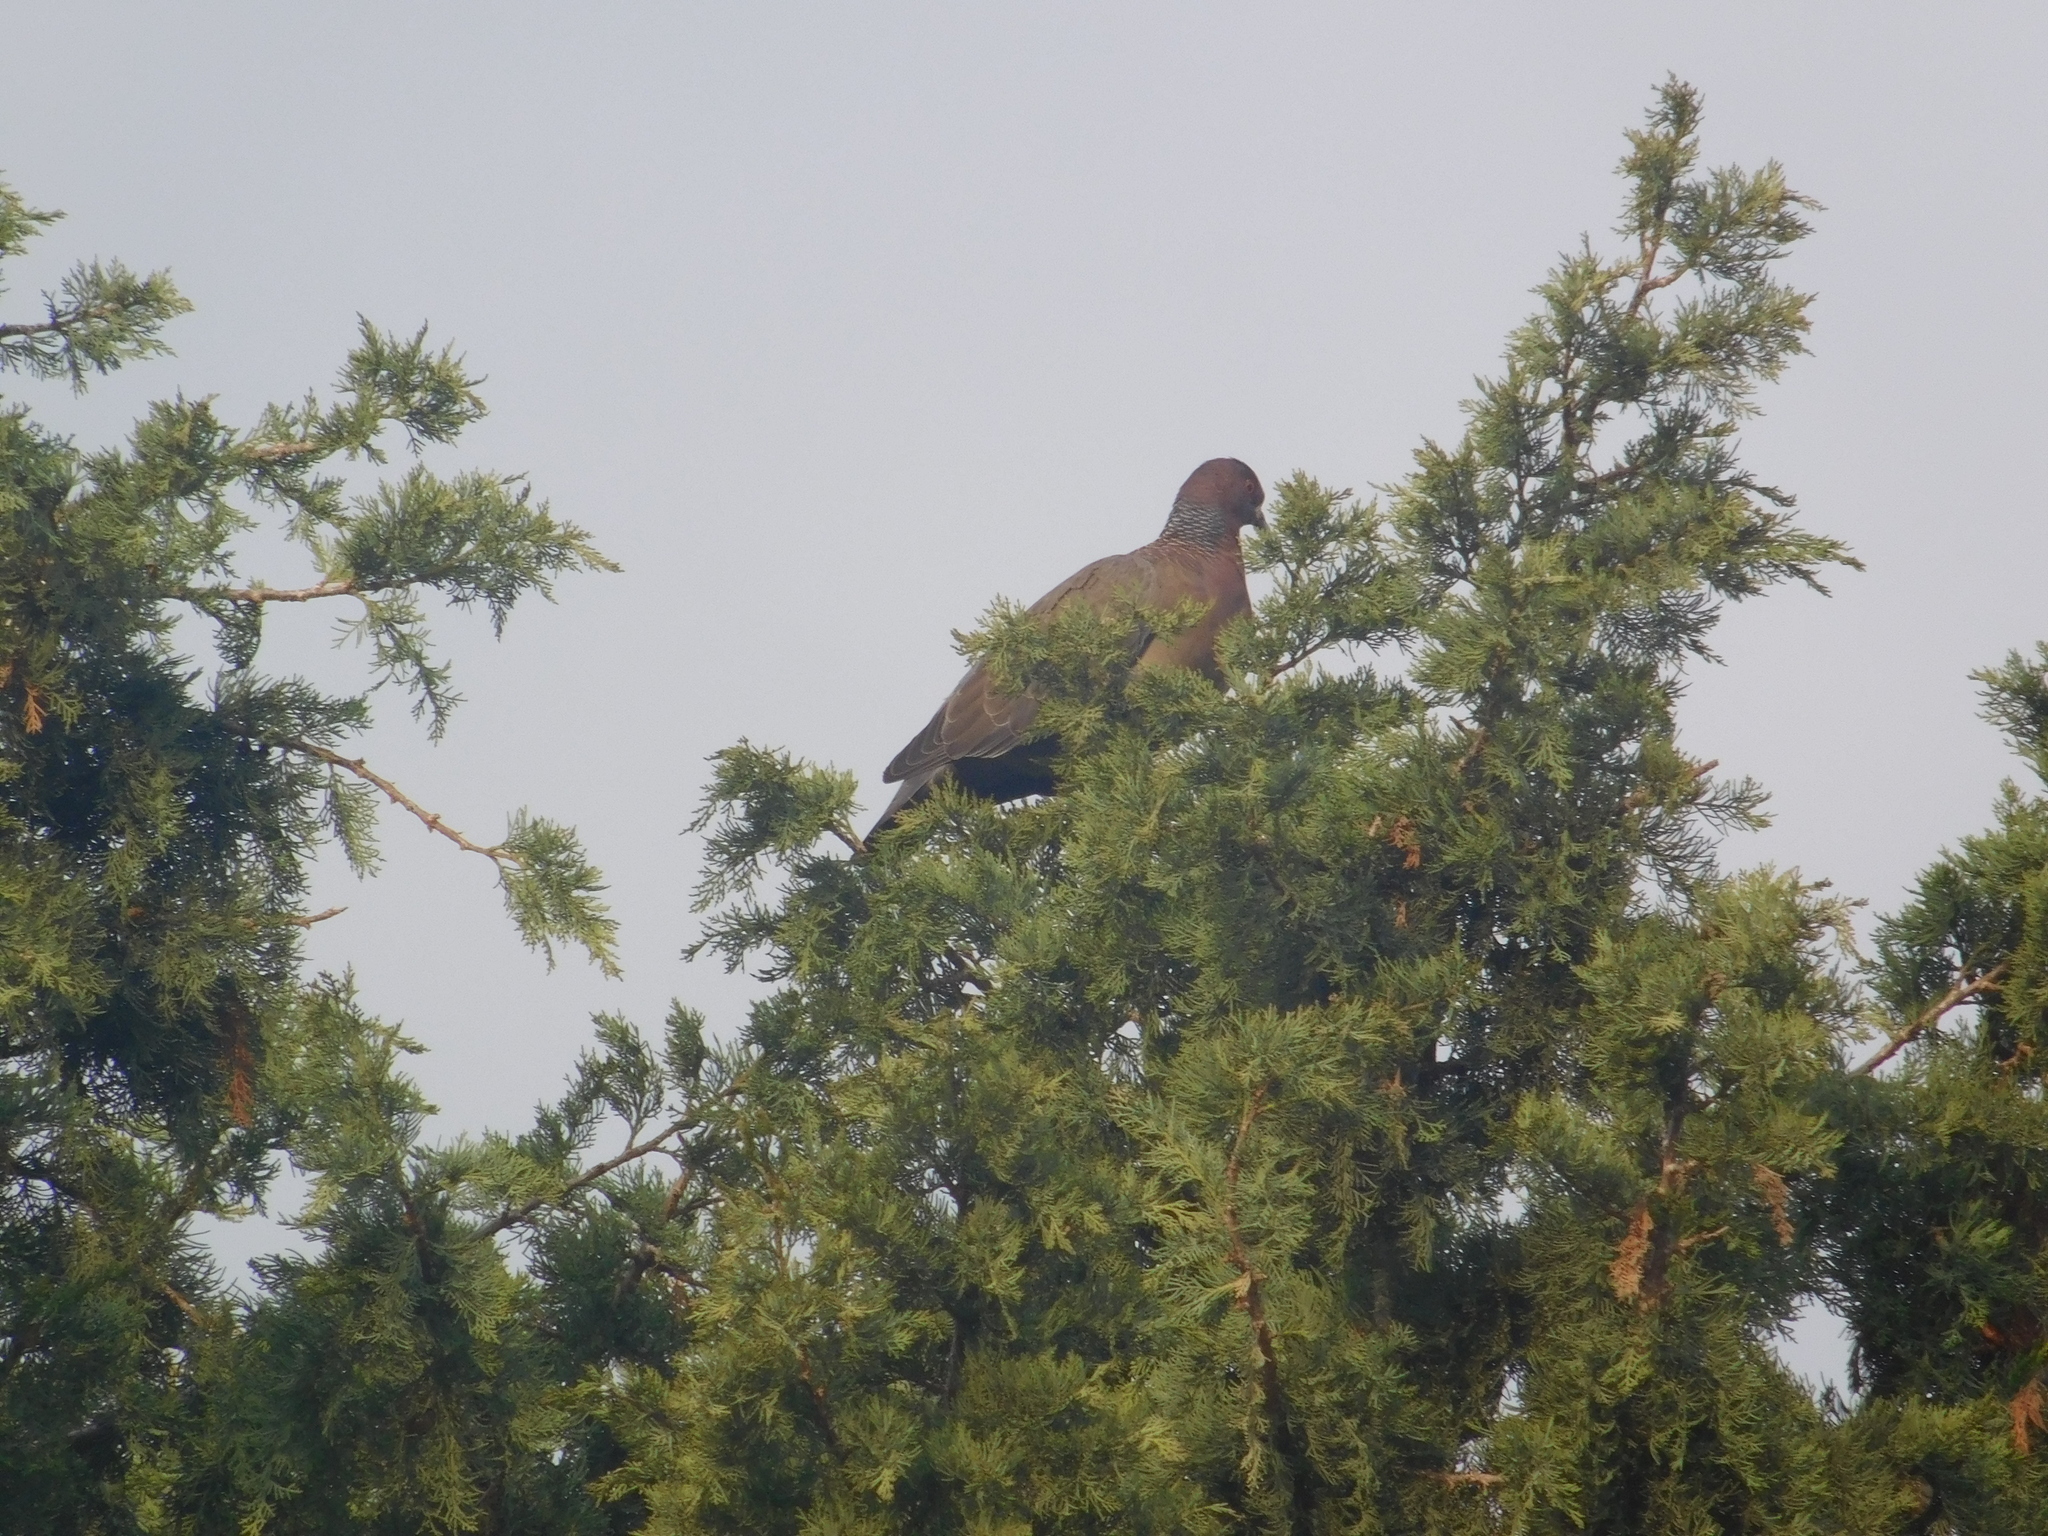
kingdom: Animalia
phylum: Chordata
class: Aves
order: Columbiformes
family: Columbidae
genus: Patagioenas
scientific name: Patagioenas picazuro
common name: Picazuro pigeon
